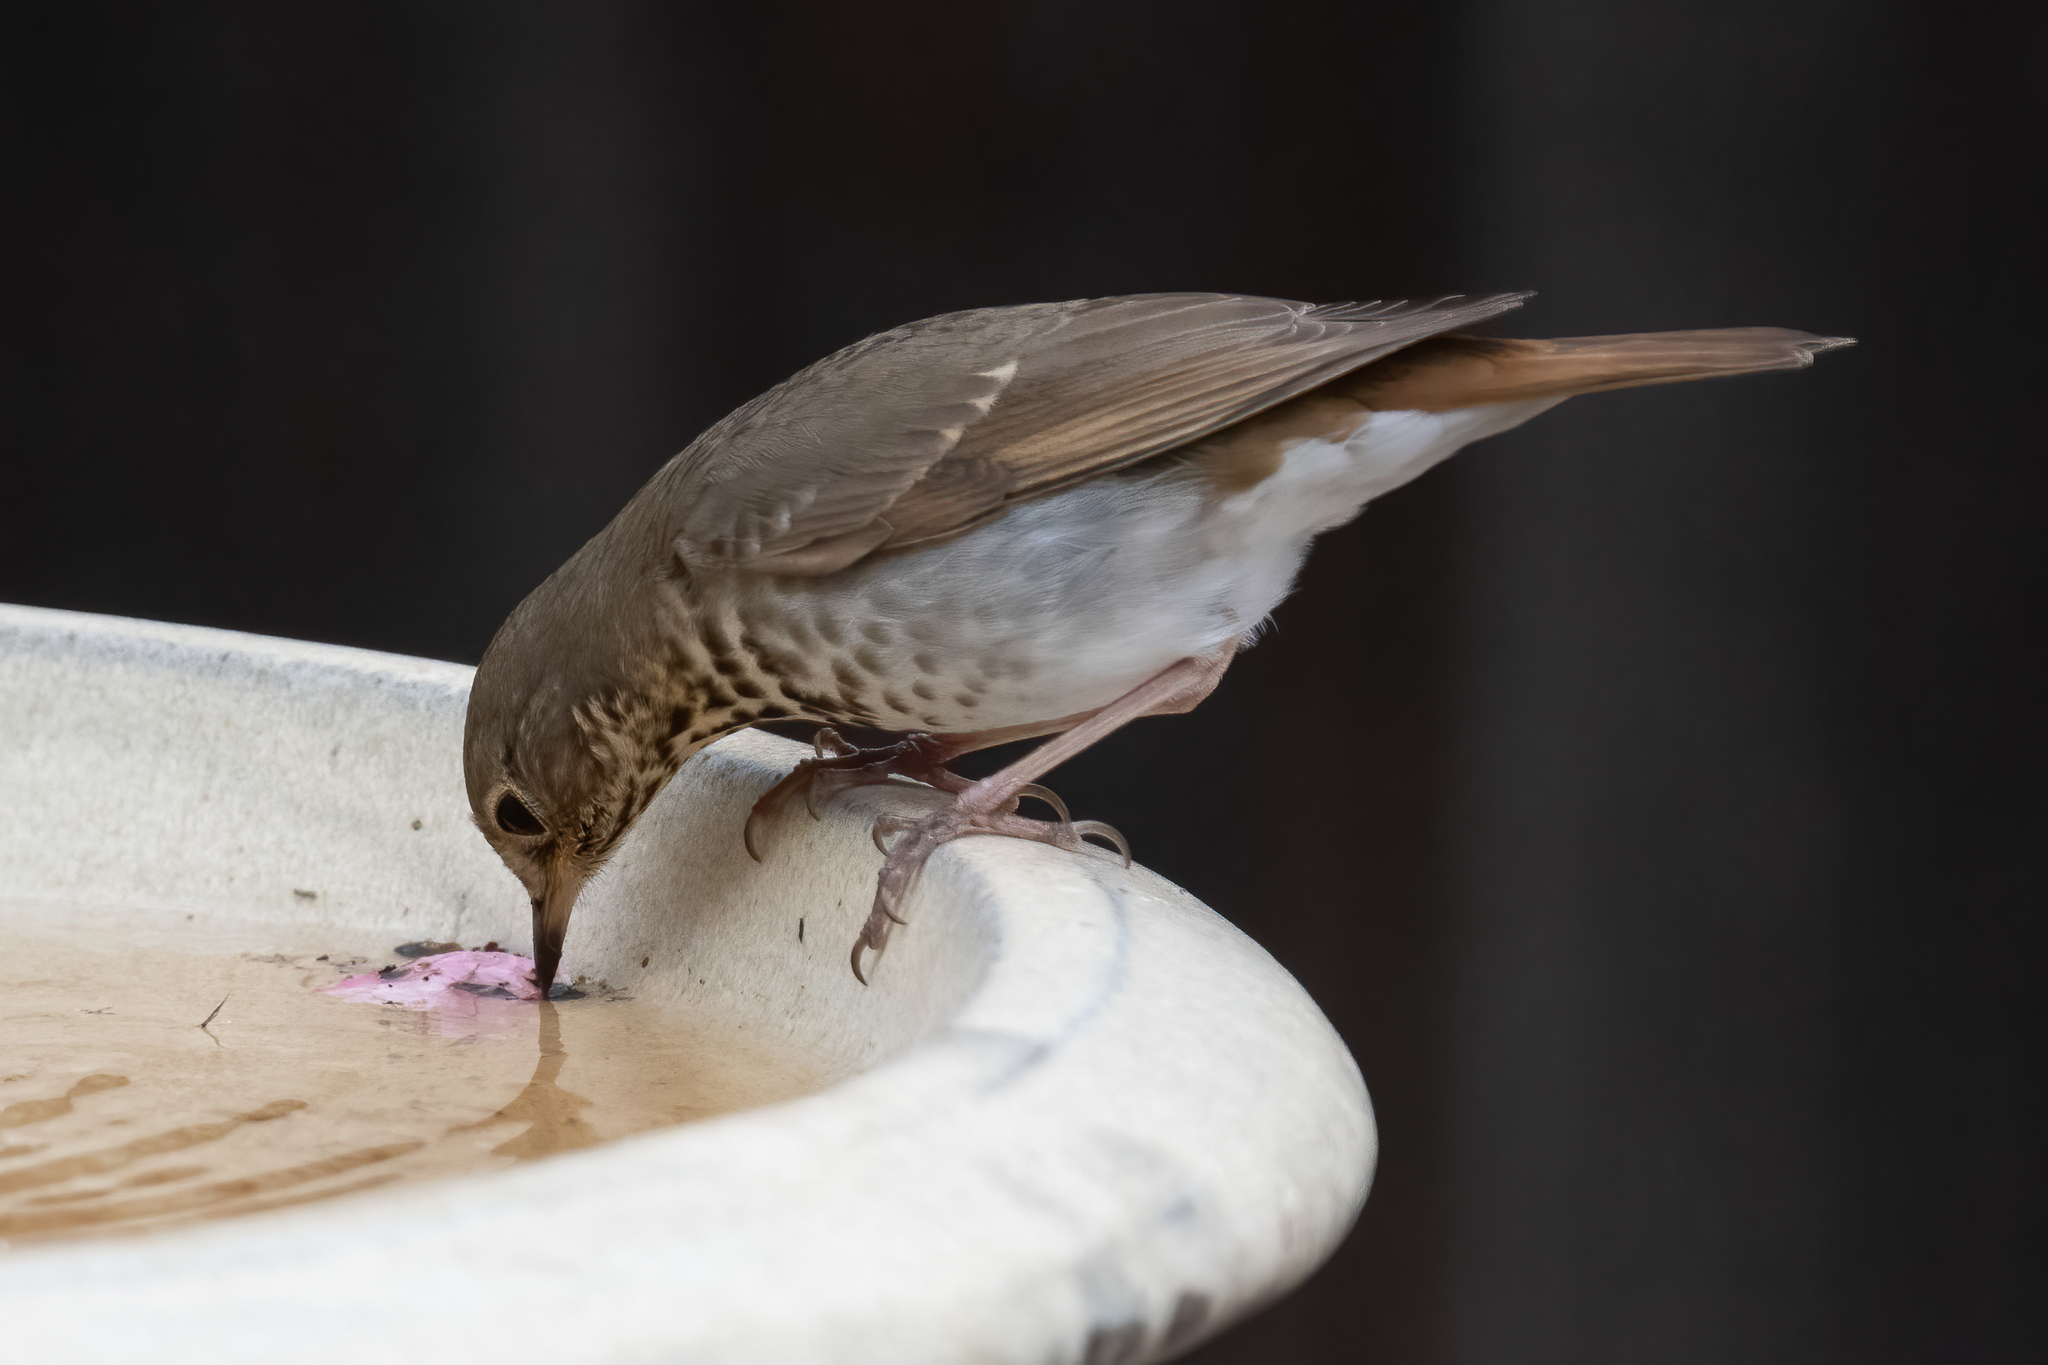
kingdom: Animalia
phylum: Chordata
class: Aves
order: Passeriformes
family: Turdidae
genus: Catharus
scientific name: Catharus guttatus
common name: Hermit thrush
